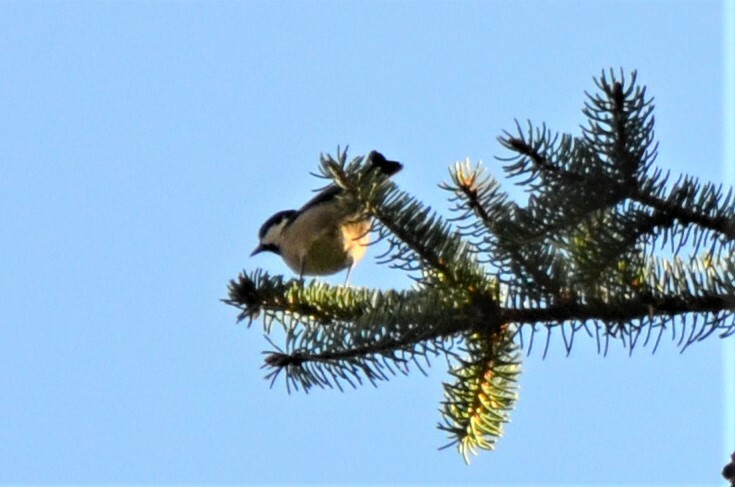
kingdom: Animalia
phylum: Chordata
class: Aves
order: Passeriformes
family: Paridae
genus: Periparus
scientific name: Periparus ater
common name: Coal tit
